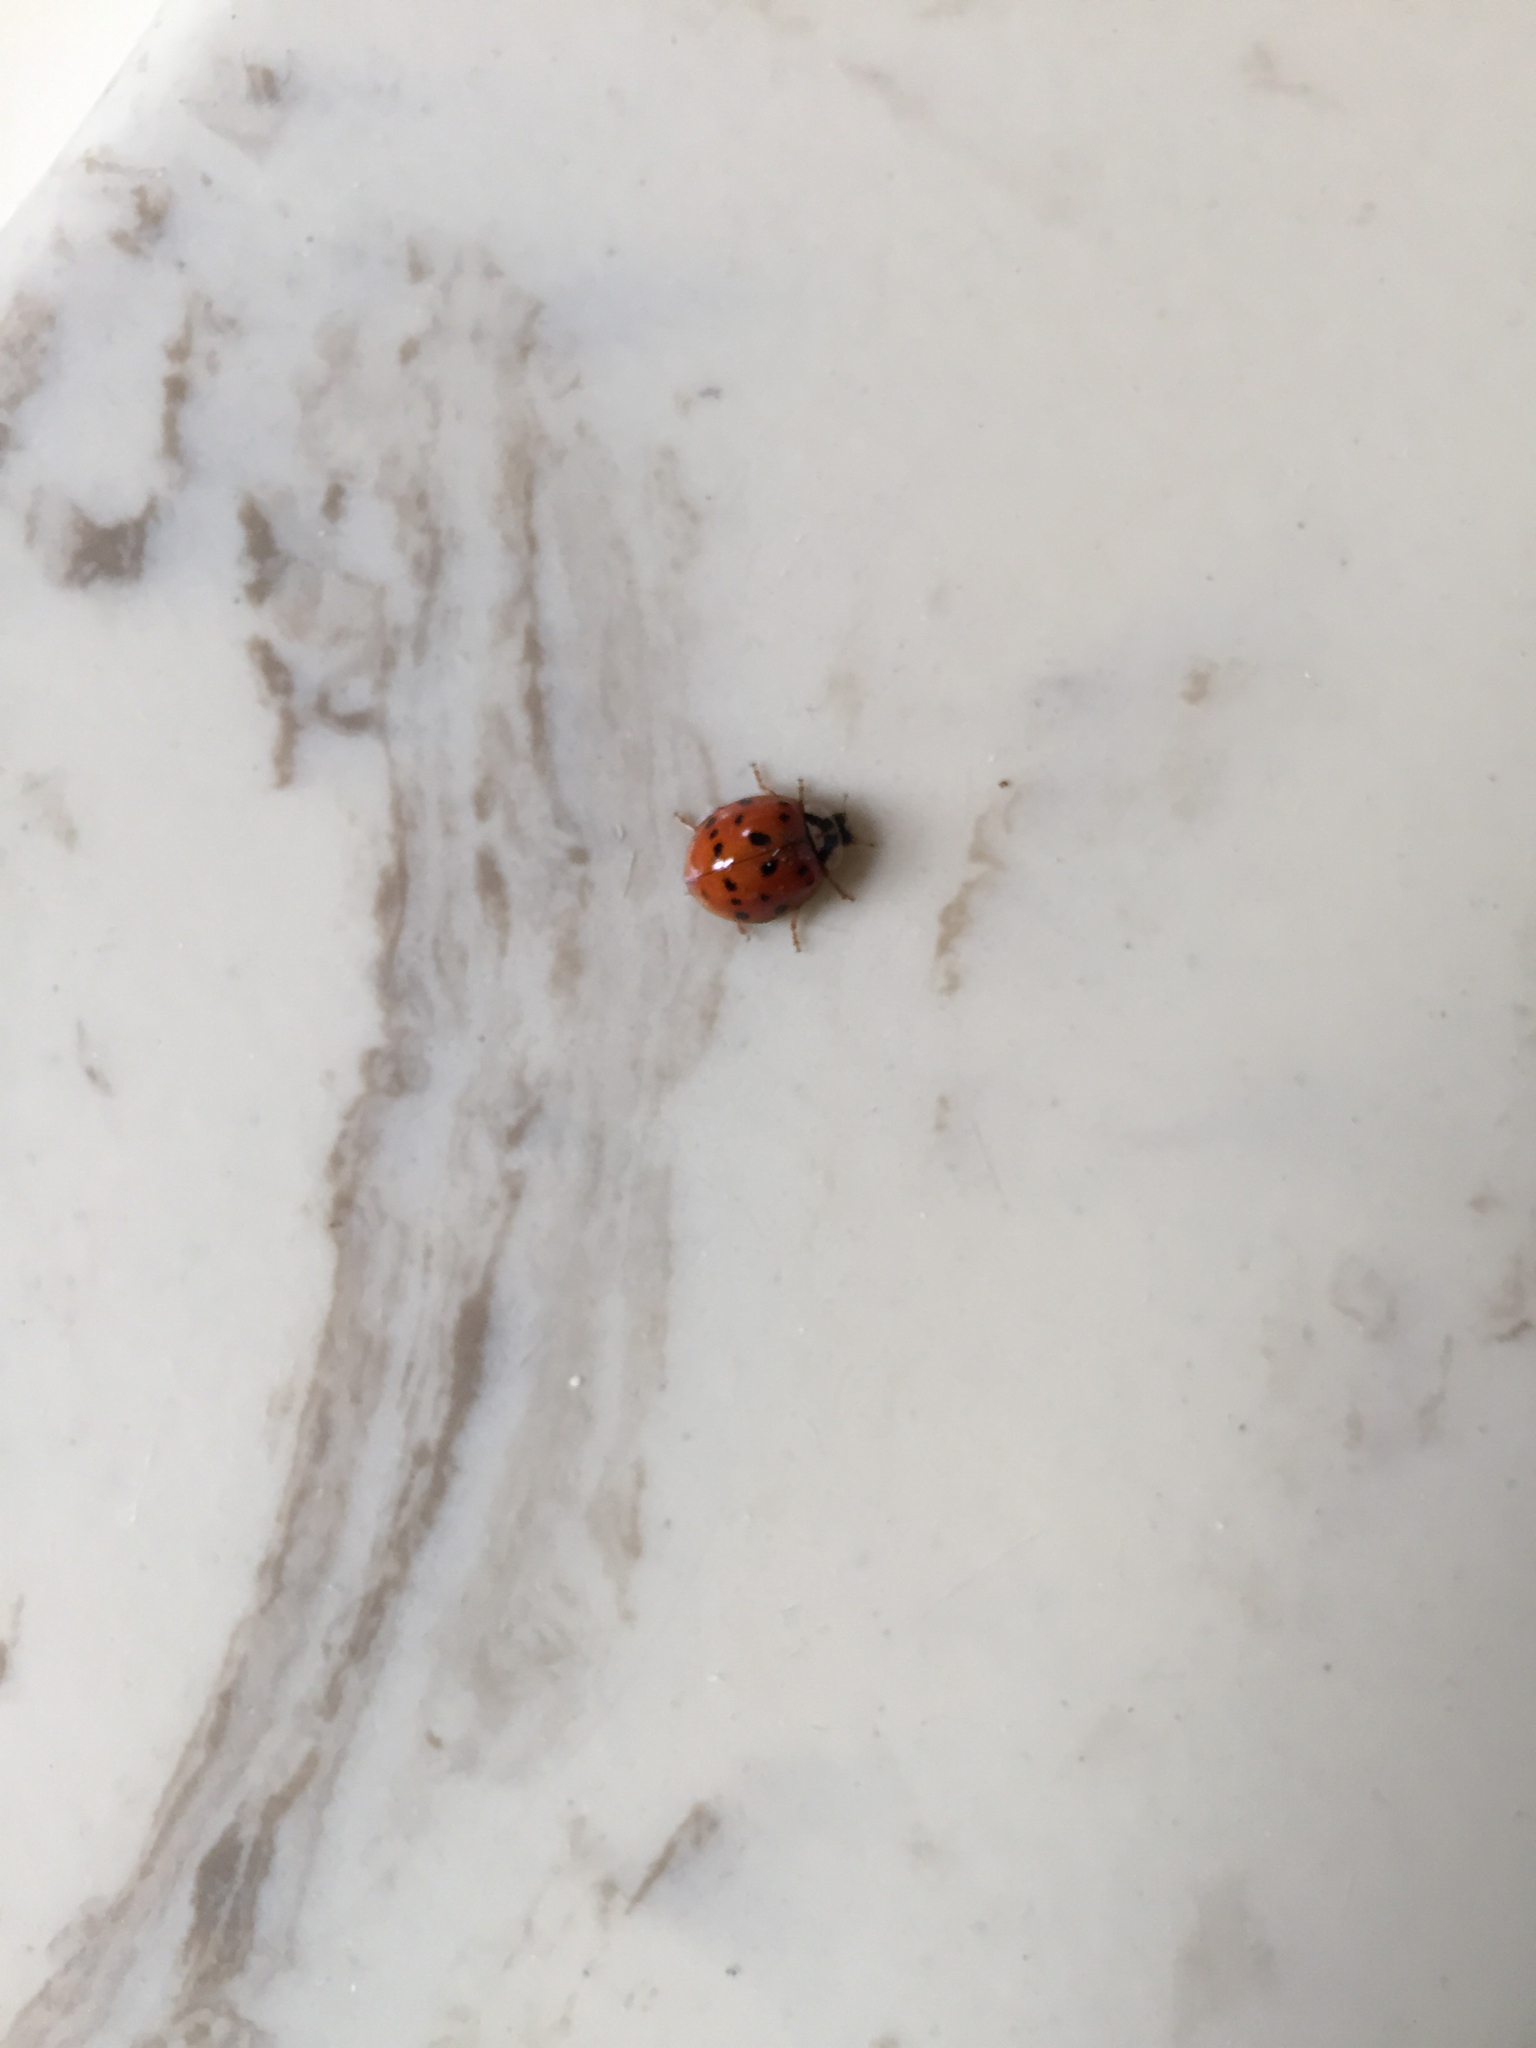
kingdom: Animalia
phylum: Arthropoda
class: Insecta
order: Coleoptera
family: Coccinellidae
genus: Harmonia
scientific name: Harmonia axyridis
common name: Harlequin ladybird
